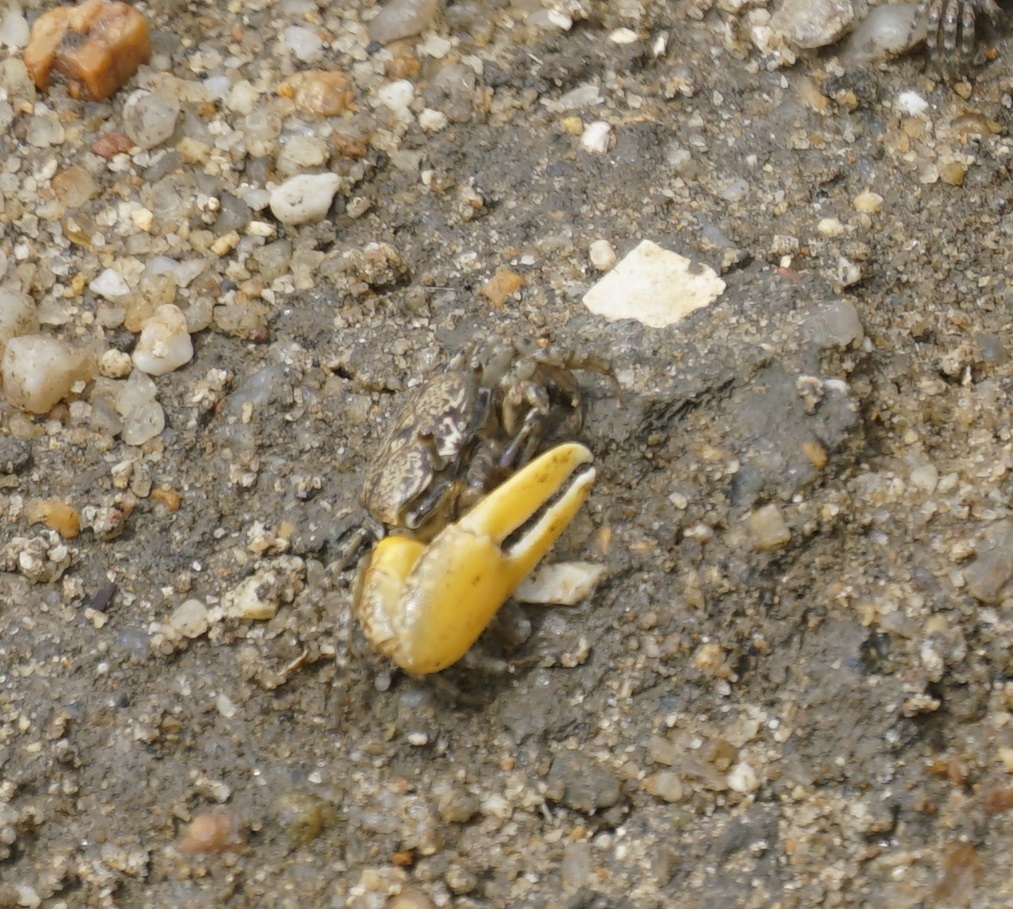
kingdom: Animalia
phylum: Arthropoda
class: Malacostraca
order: Decapoda
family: Ocypodidae
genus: Austruca
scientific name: Austruca perplexa
